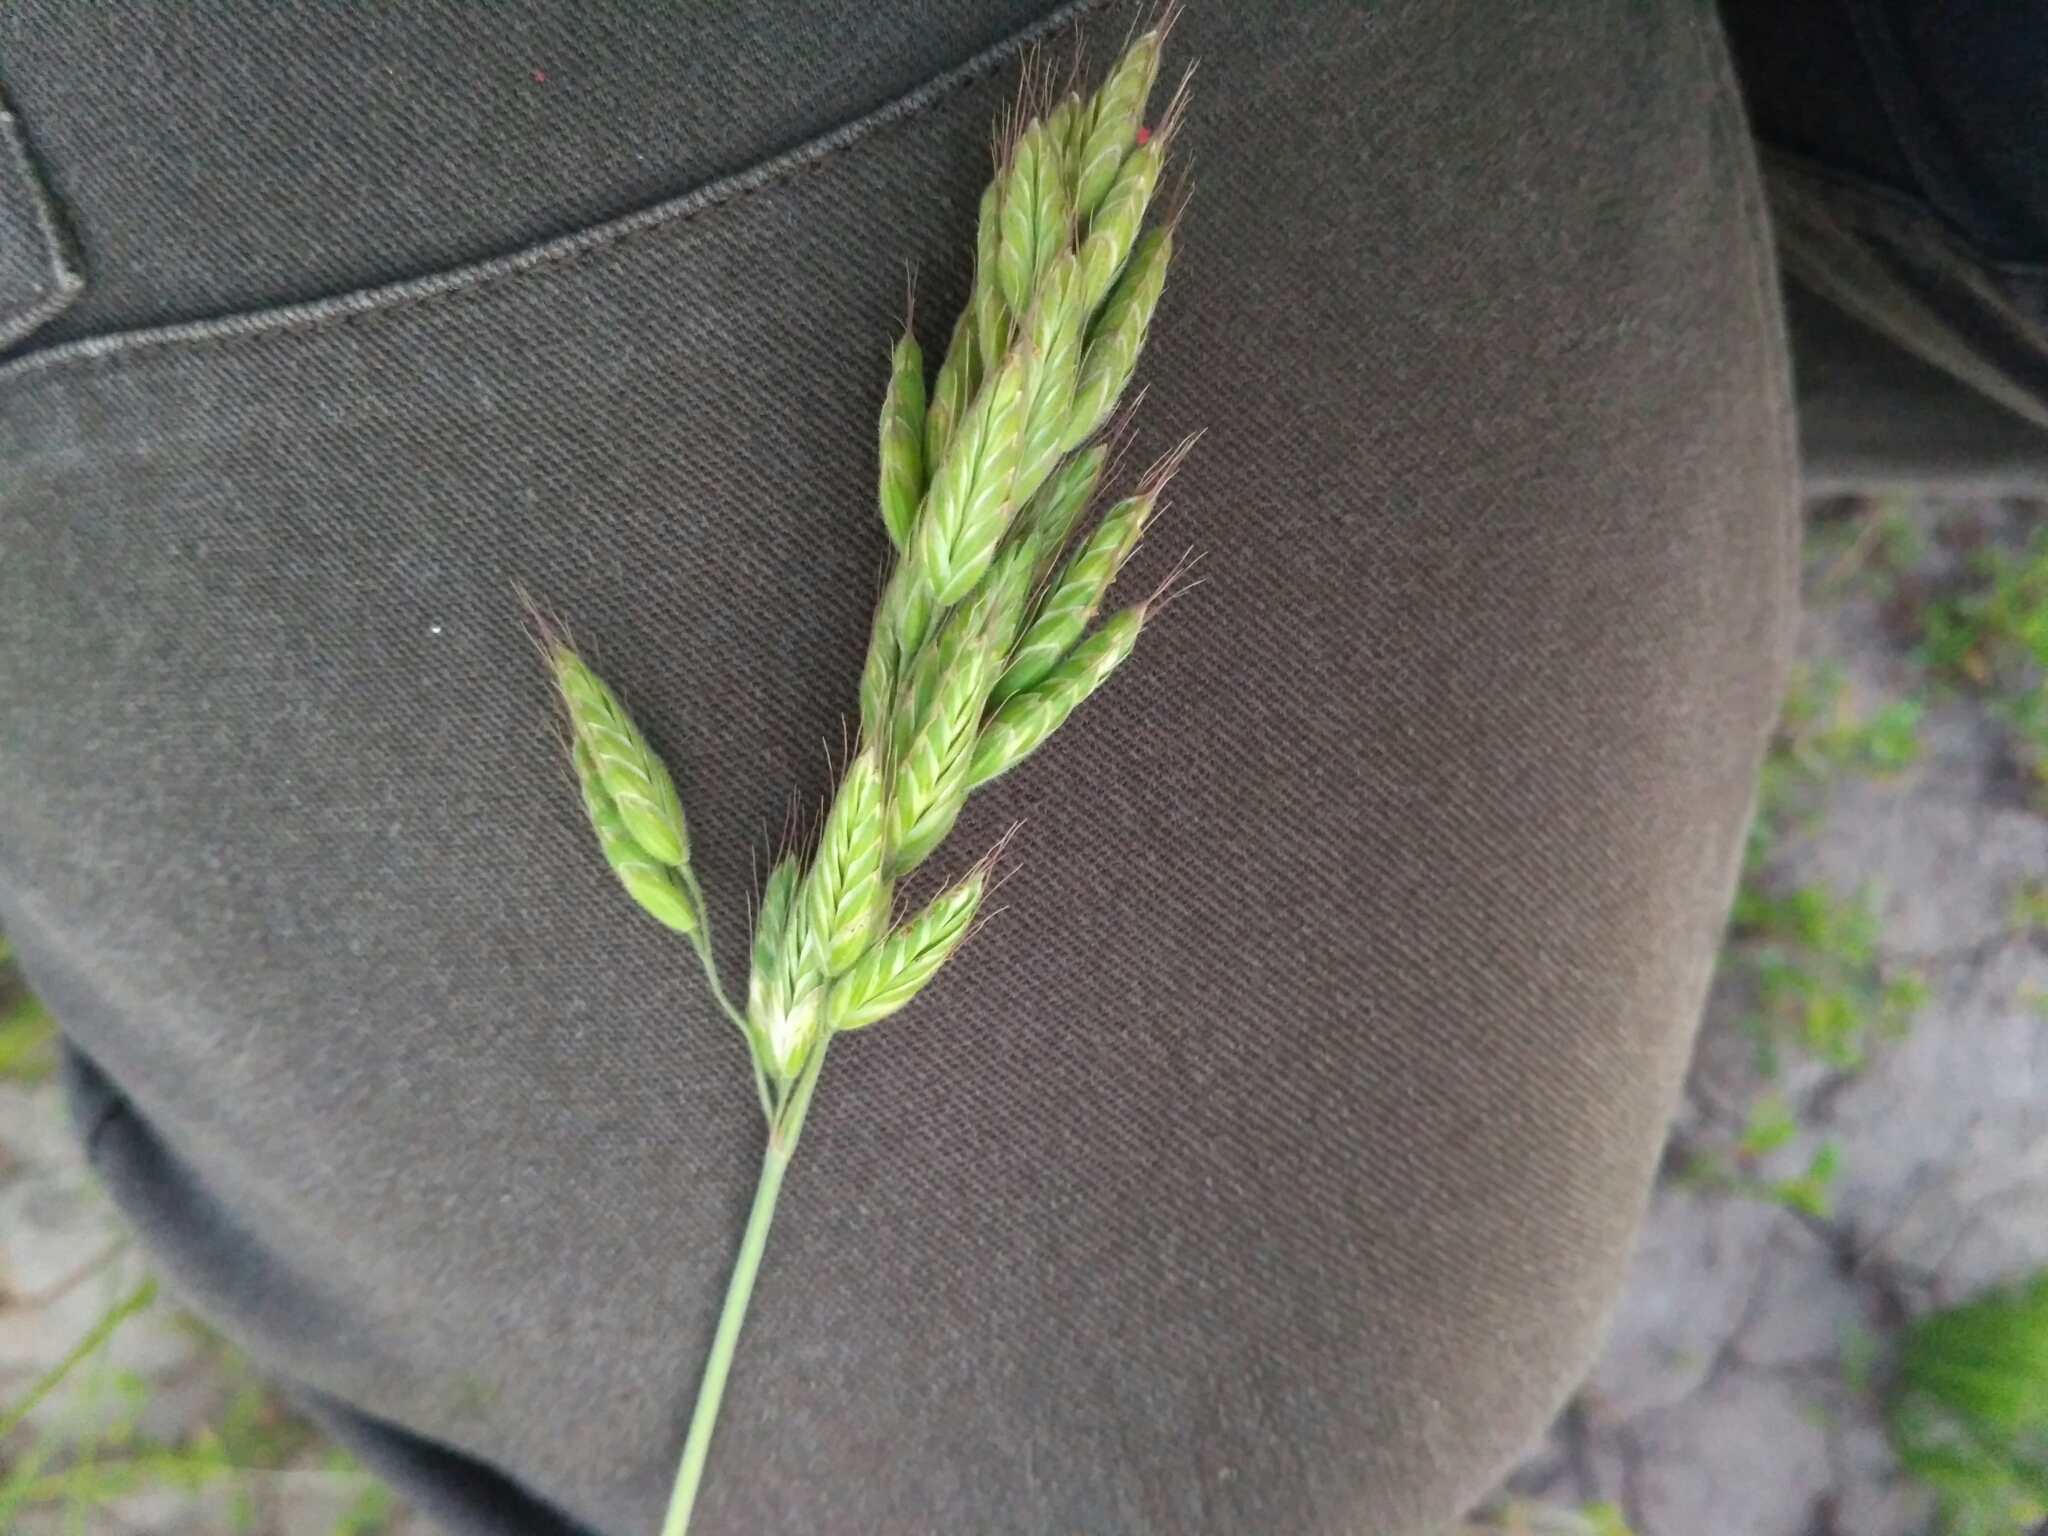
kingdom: Plantae
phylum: Tracheophyta
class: Liliopsida
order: Poales
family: Poaceae
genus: Bromus
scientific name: Bromus hordeaceus
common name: Soft brome
